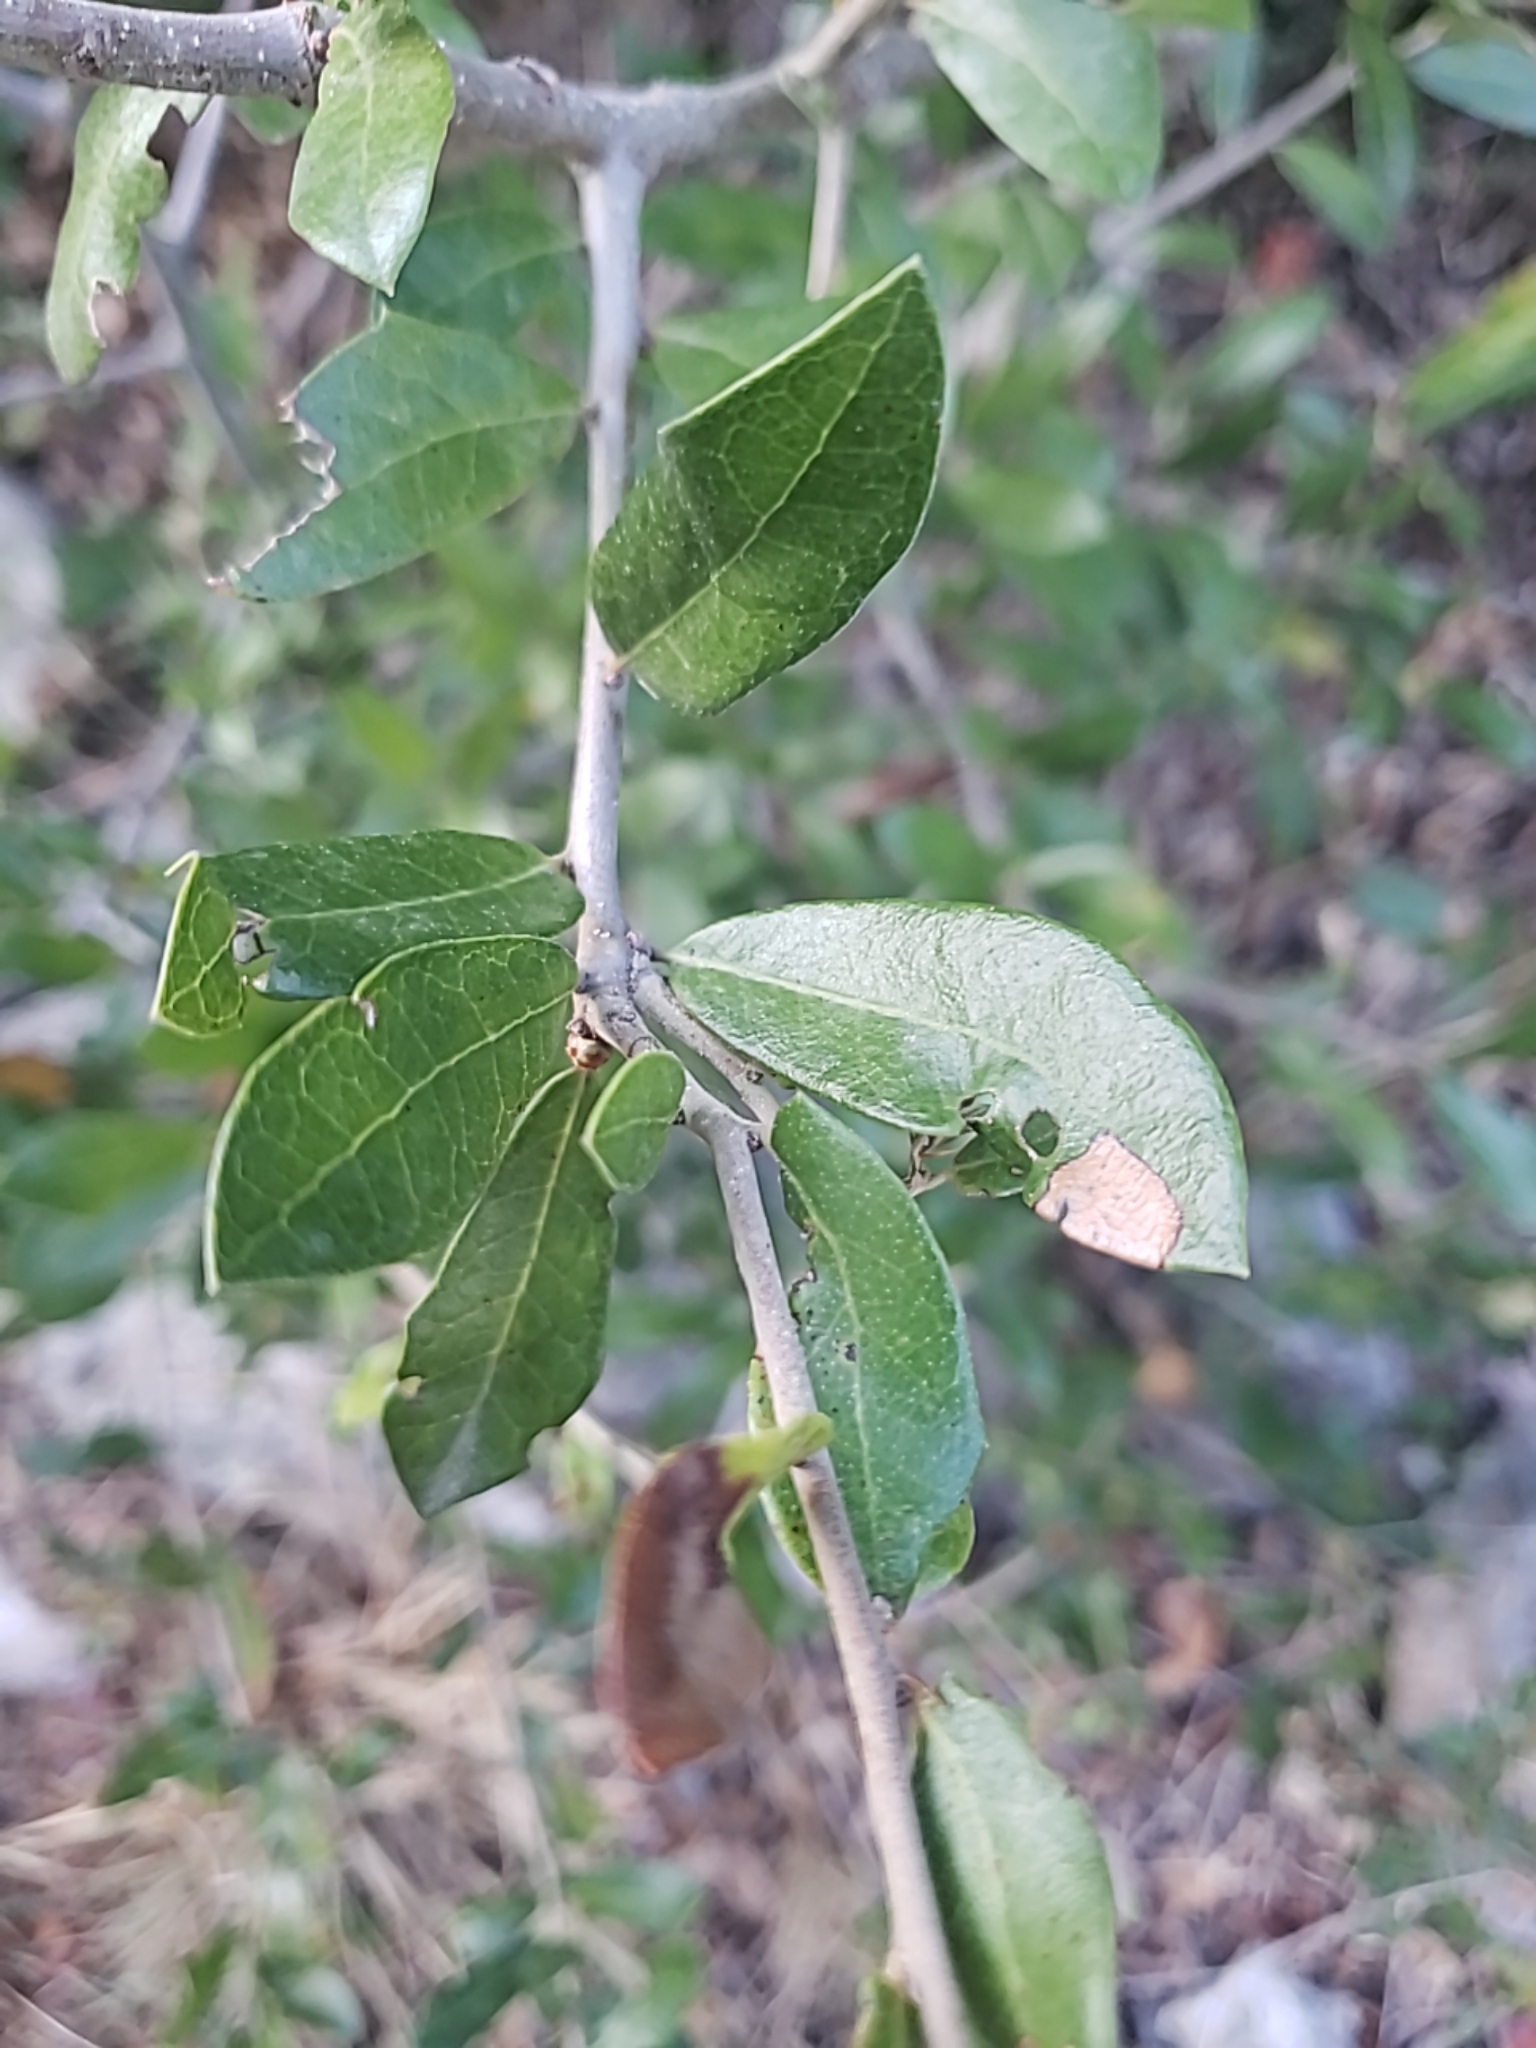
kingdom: Plantae
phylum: Tracheophyta
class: Magnoliopsida
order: Fagales
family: Fagaceae
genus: Quercus
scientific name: Quercus fusiformis
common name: Texas live oak
